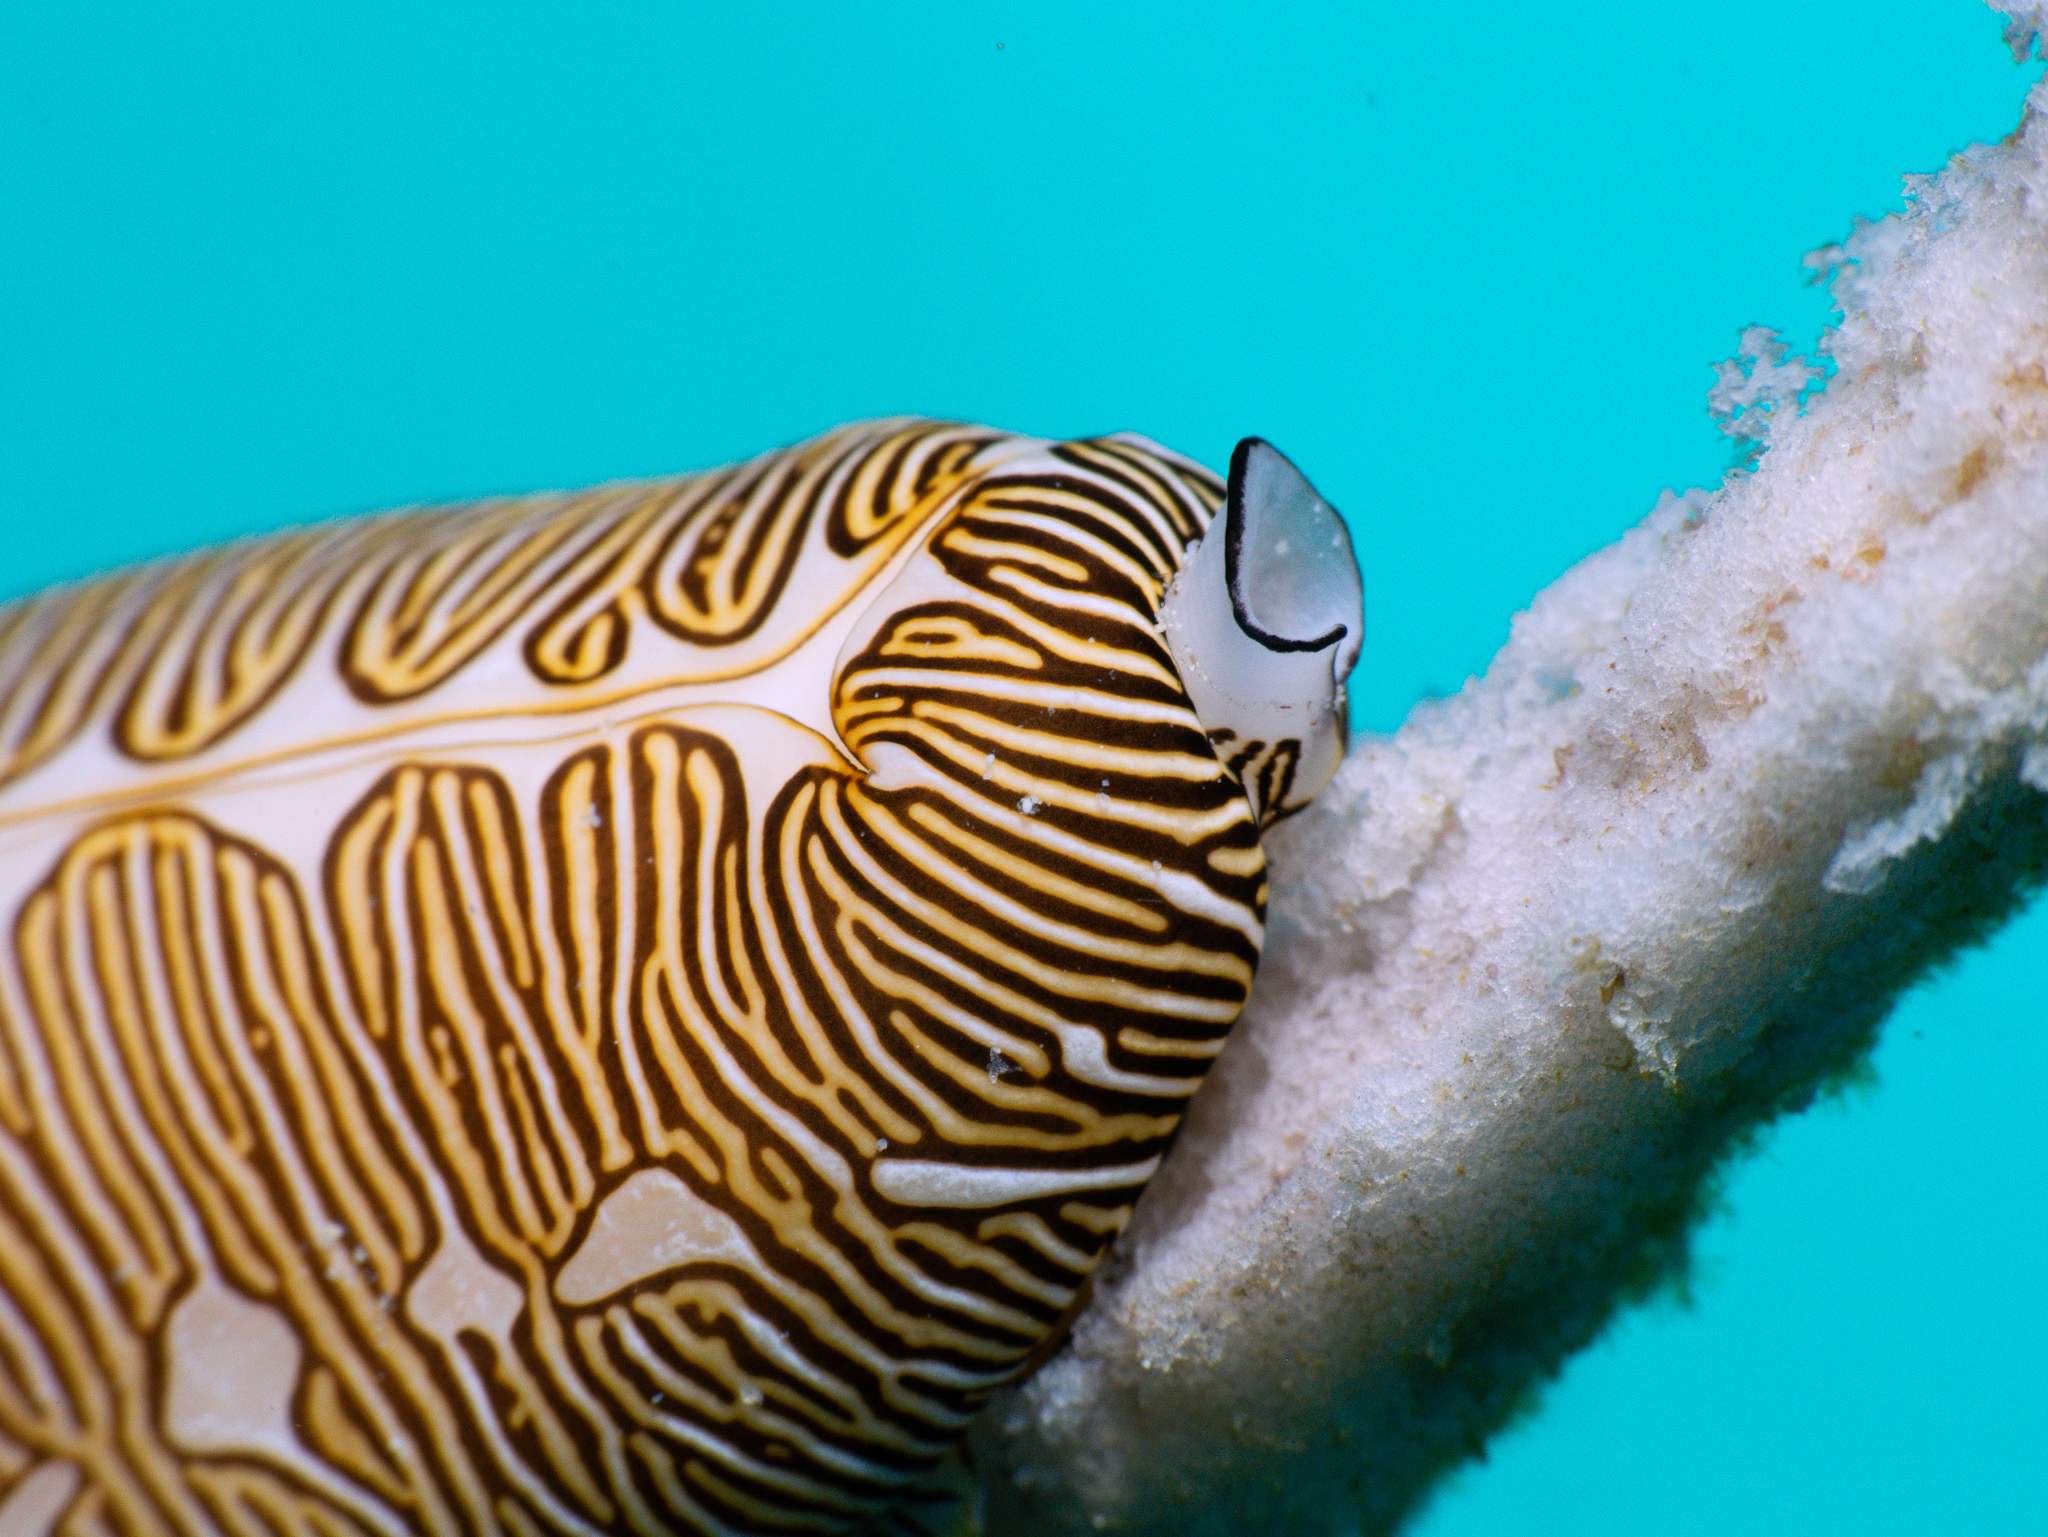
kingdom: Animalia
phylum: Mollusca
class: Gastropoda
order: Littorinimorpha
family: Ovulidae
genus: Cyphoma
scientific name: Cyphoma signatum
